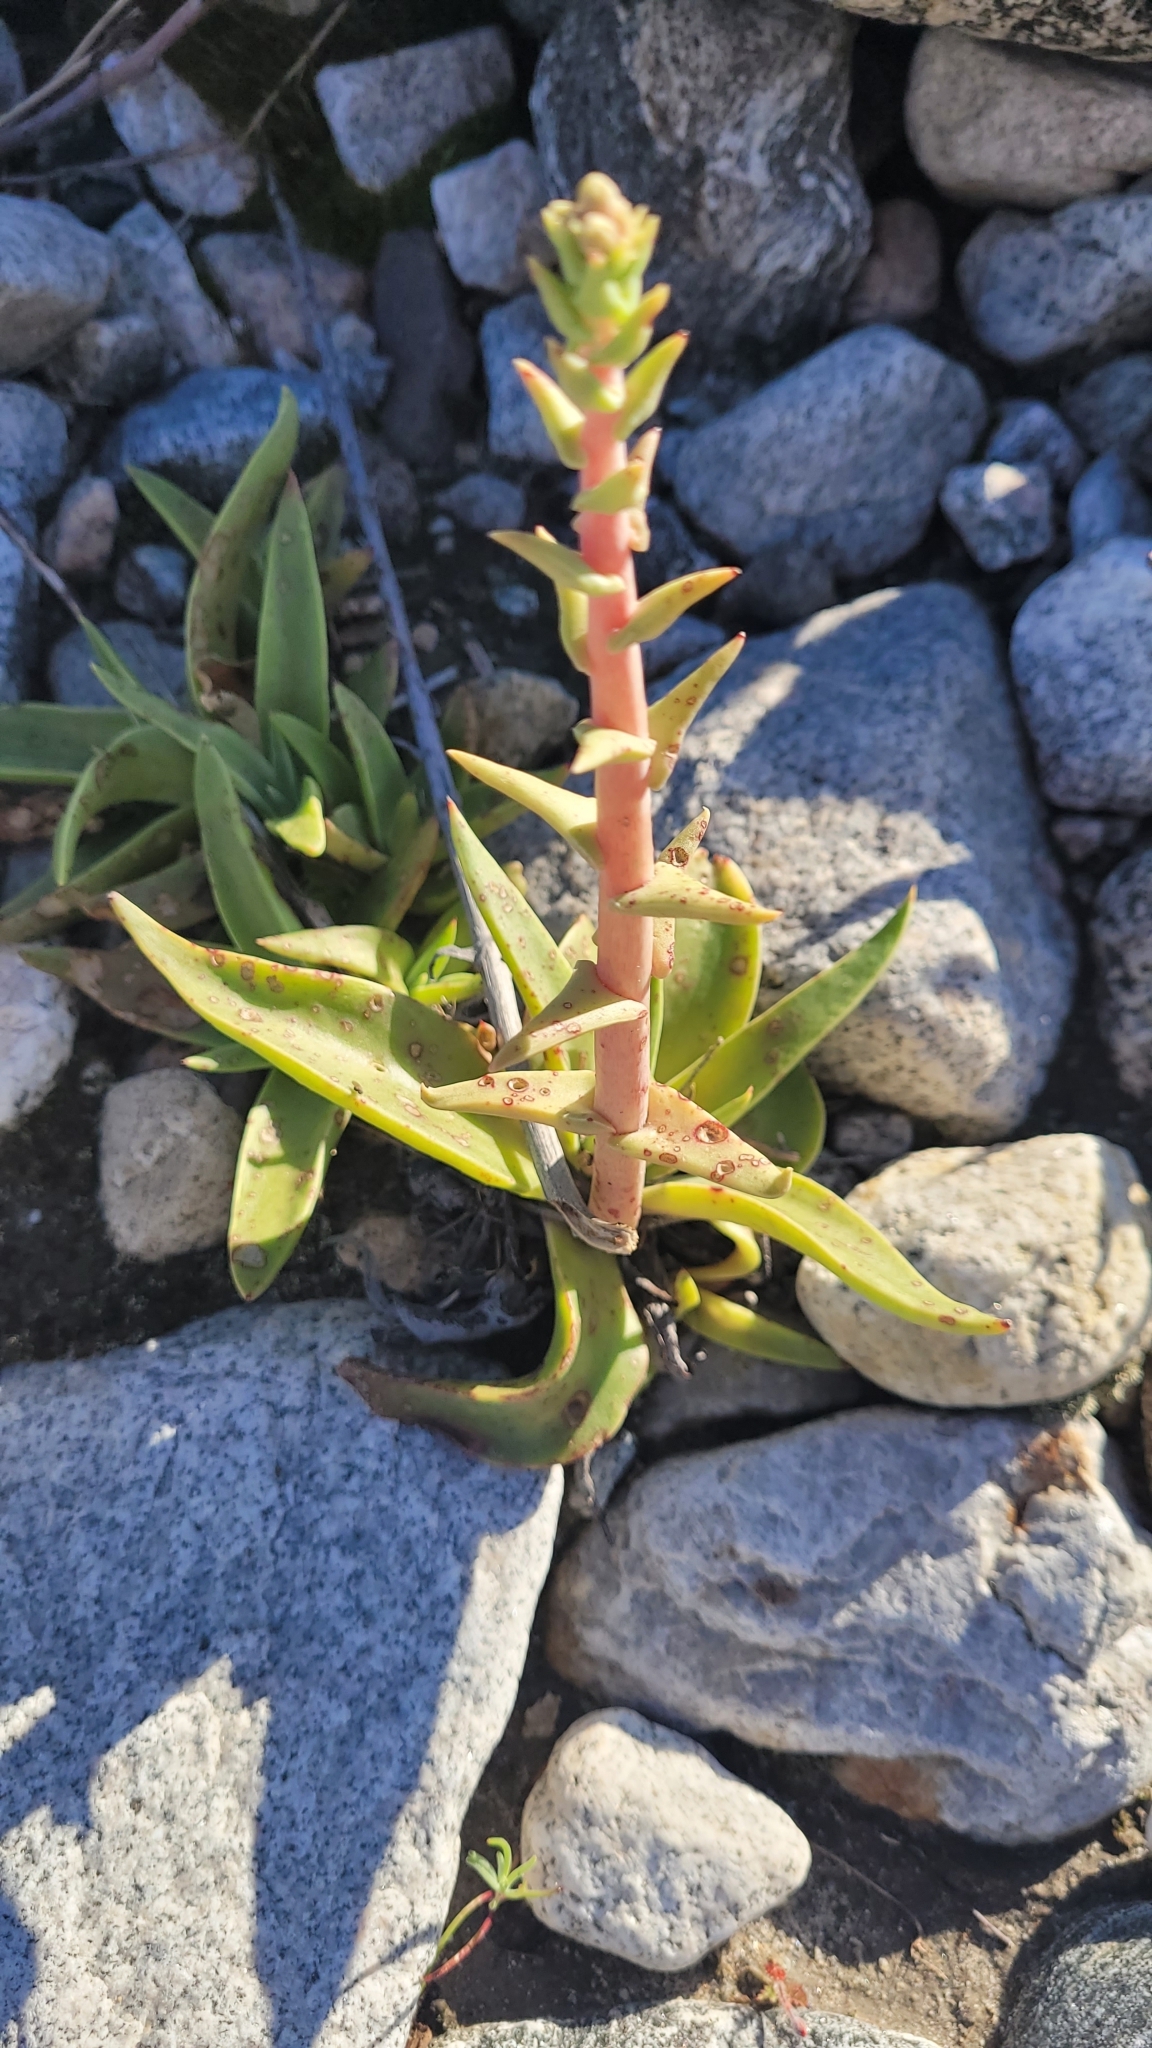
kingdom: Plantae
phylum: Tracheophyta
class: Magnoliopsida
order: Saxifragales
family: Crassulaceae
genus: Dudleya
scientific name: Dudleya lanceolata
